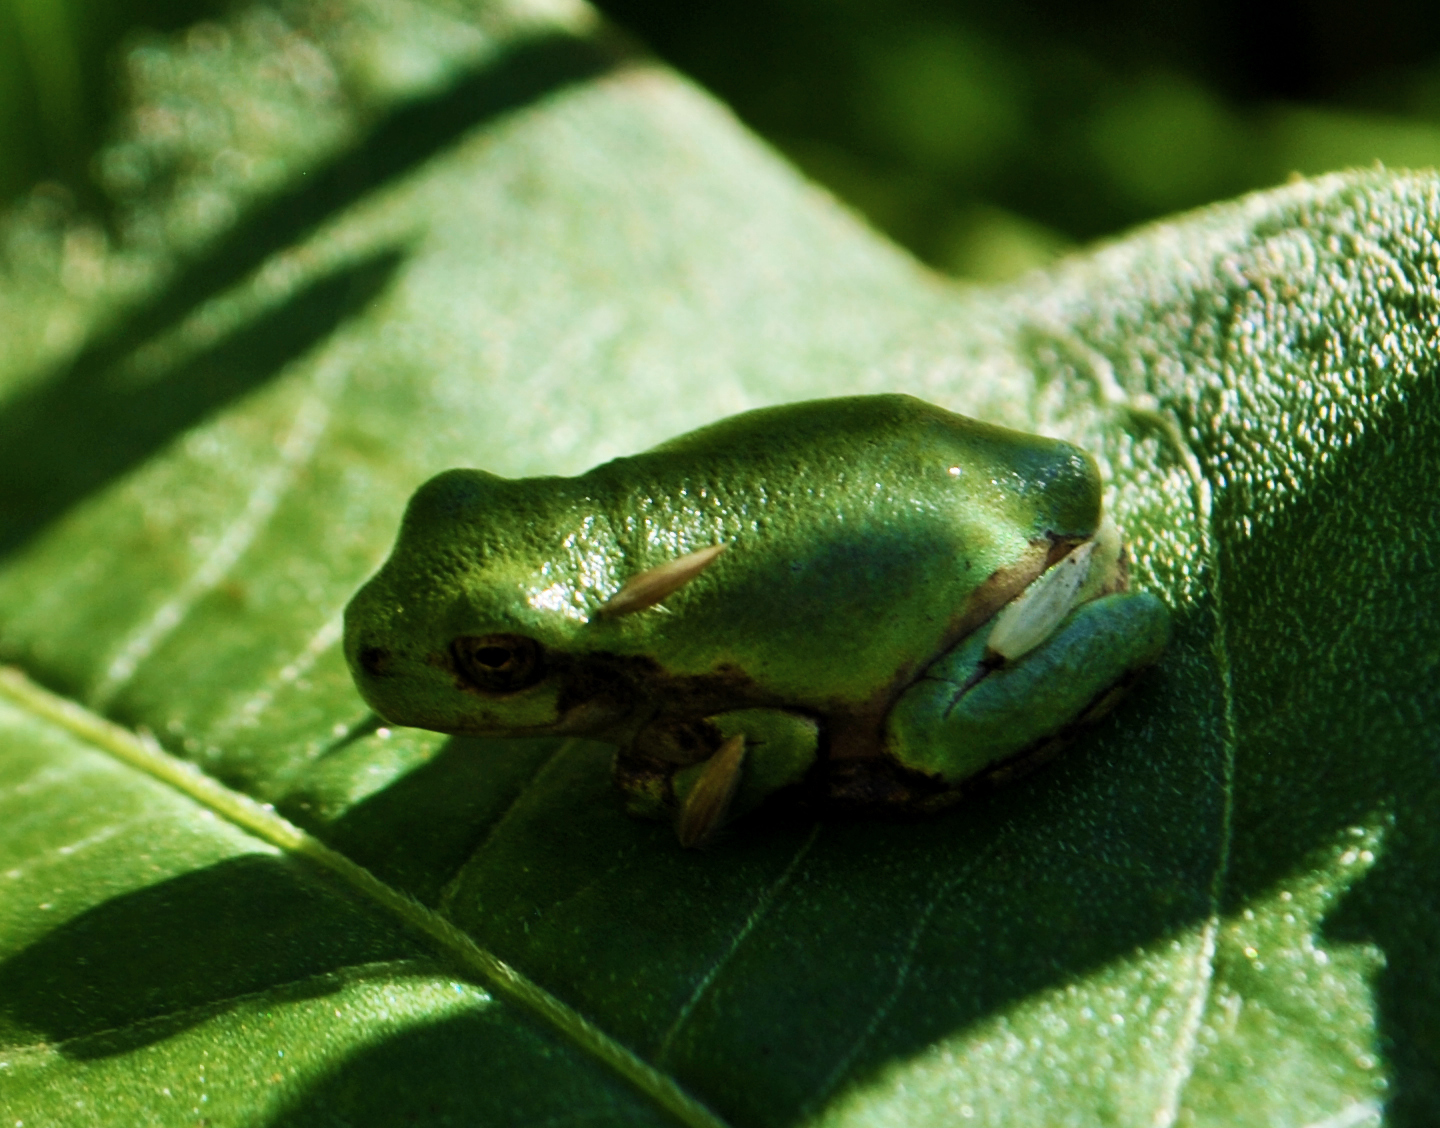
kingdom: Animalia
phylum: Chordata
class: Amphibia
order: Anura
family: Hylidae
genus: Hyla
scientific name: Hyla
